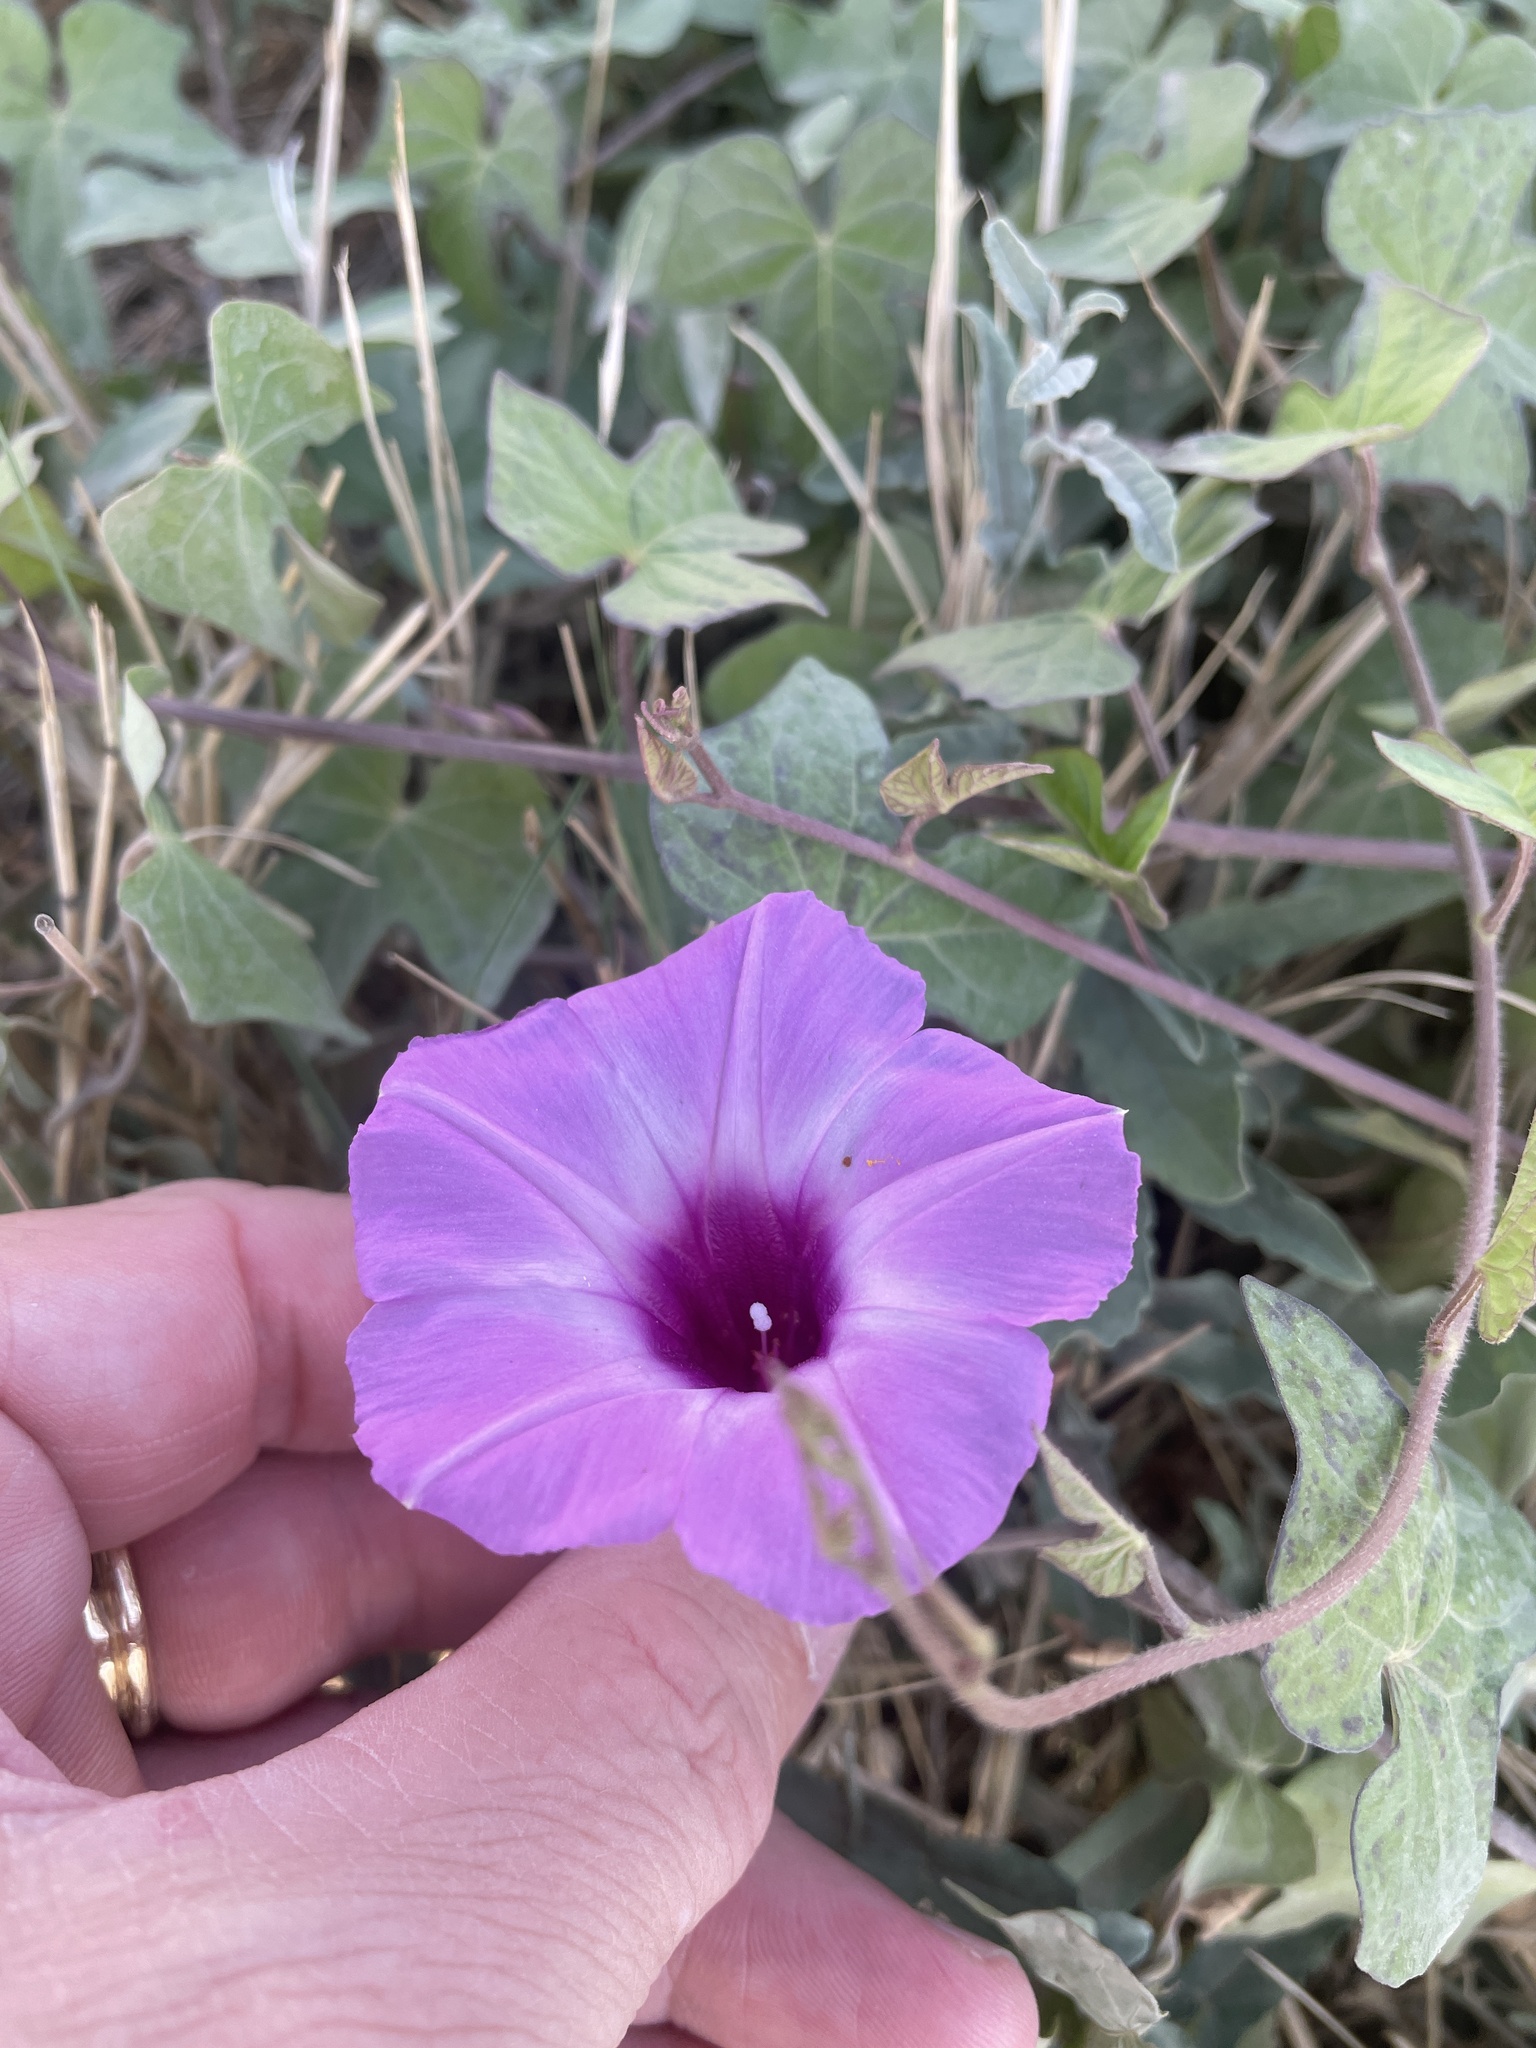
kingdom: Plantae
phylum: Tracheophyta
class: Magnoliopsida
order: Solanales
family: Convolvulaceae
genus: Ipomoea
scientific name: Ipomoea cordatotriloba
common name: Cotton morning glory
